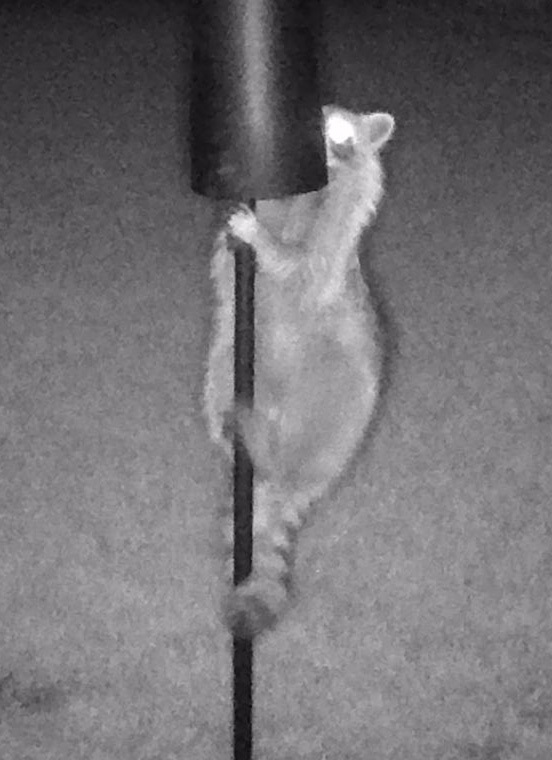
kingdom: Animalia
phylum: Chordata
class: Mammalia
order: Carnivora
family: Procyonidae
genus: Procyon
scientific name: Procyon lotor
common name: Raccoon
